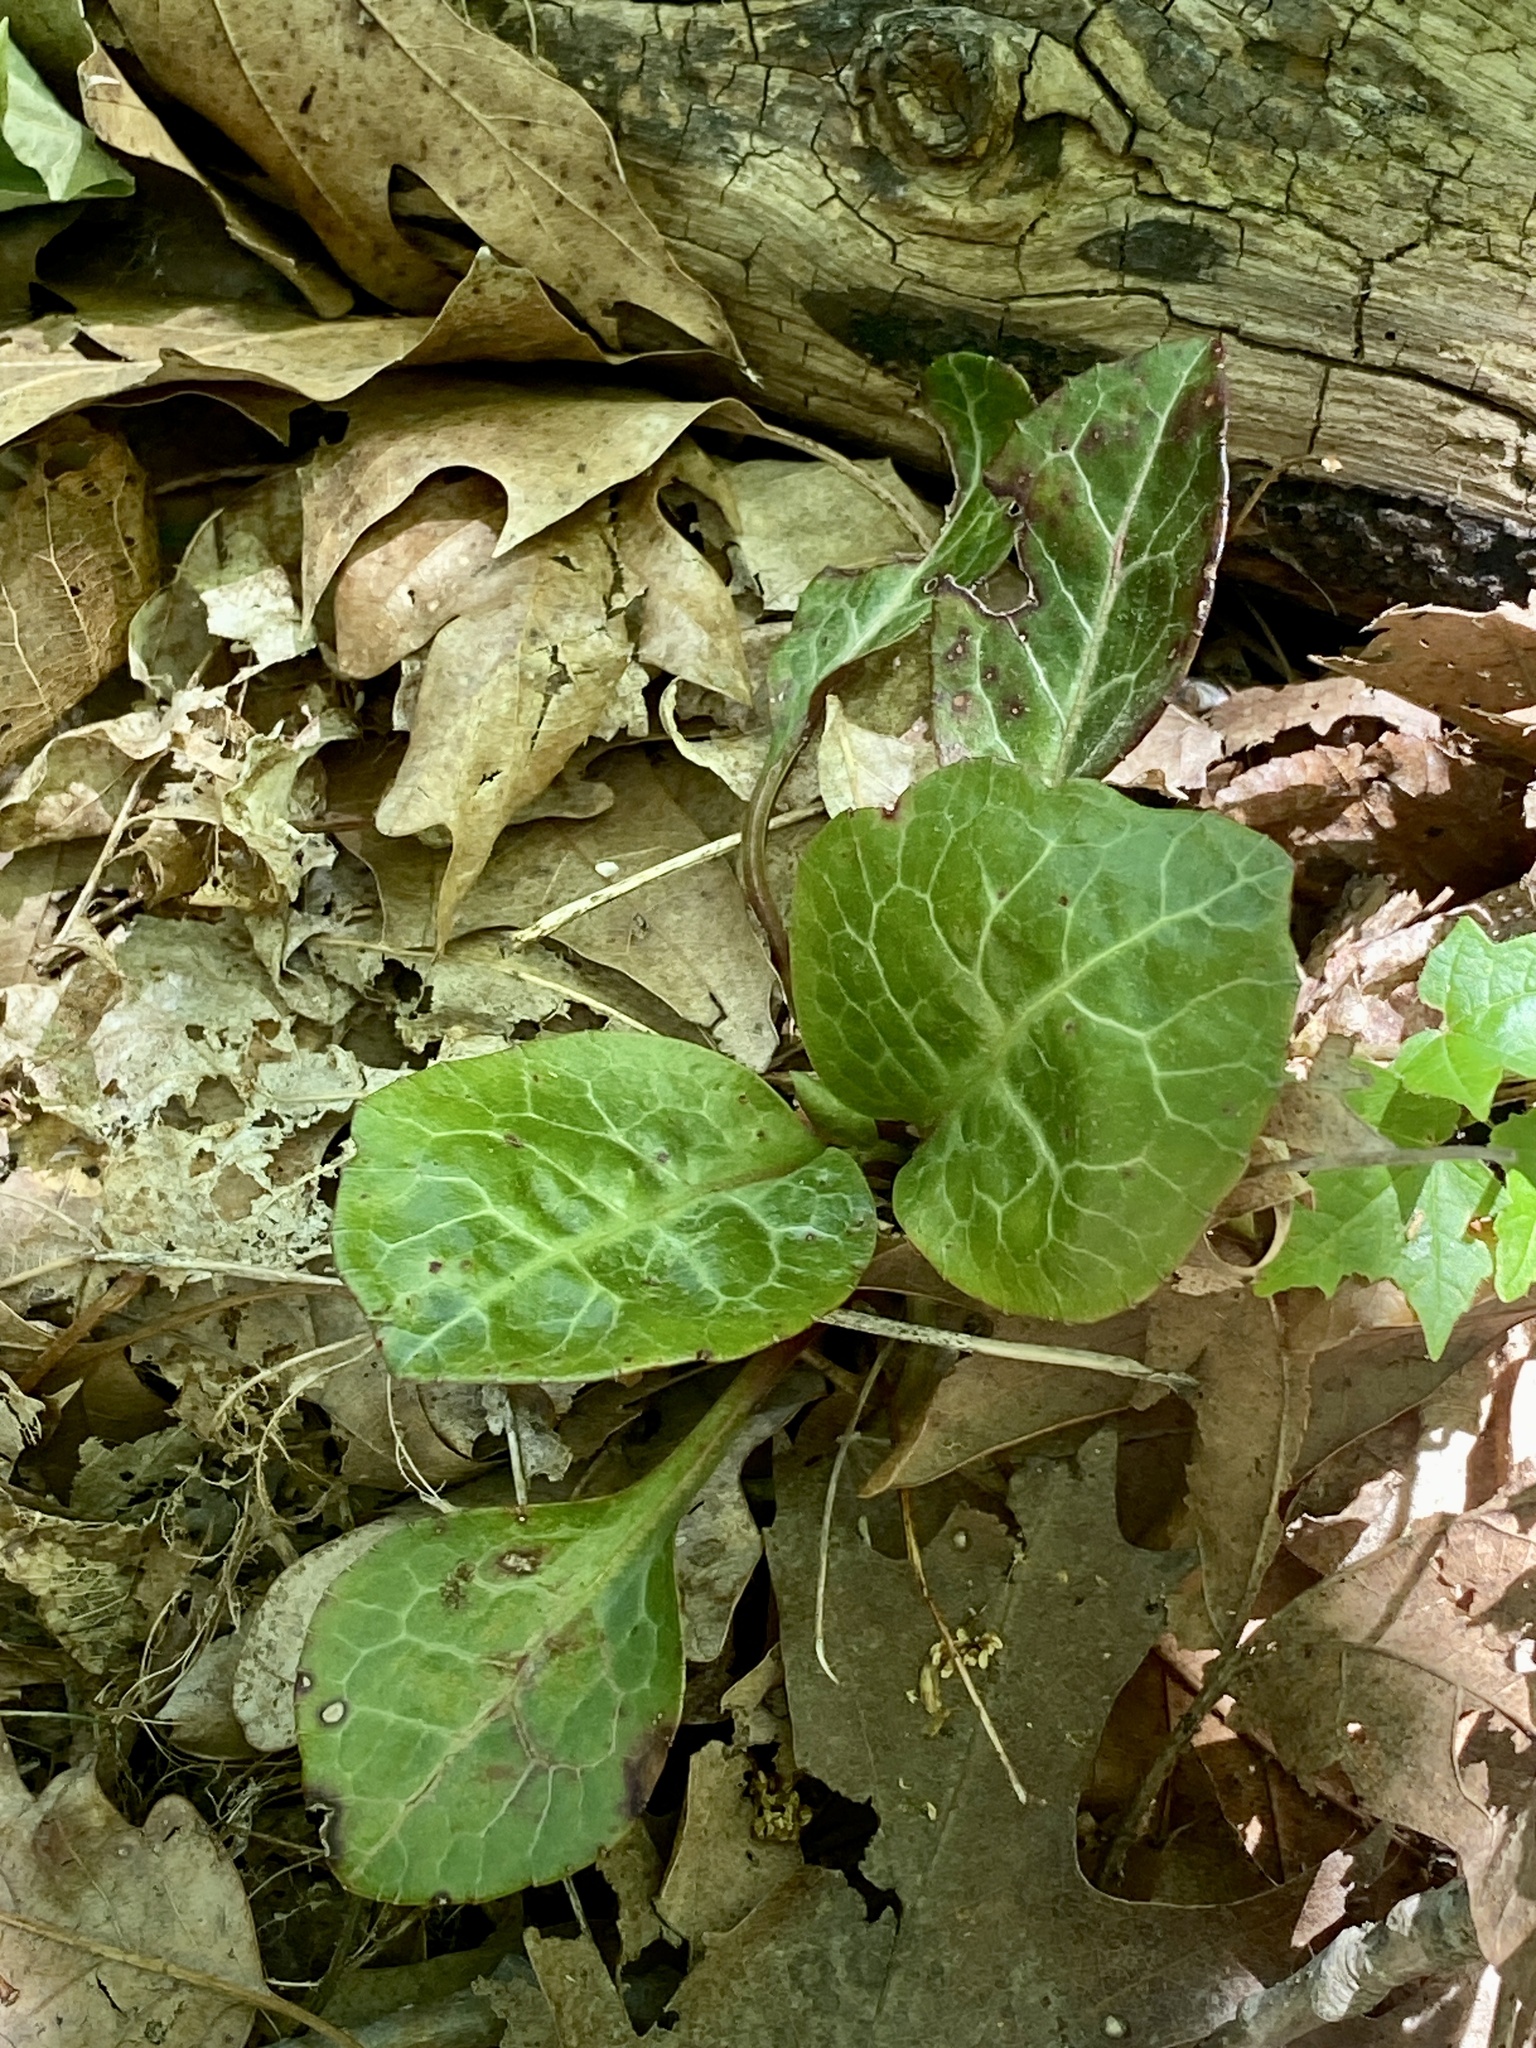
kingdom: Plantae
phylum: Tracheophyta
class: Magnoliopsida
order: Ericales
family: Ericaceae
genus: Pyrola
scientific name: Pyrola americana
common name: American wintergreen
